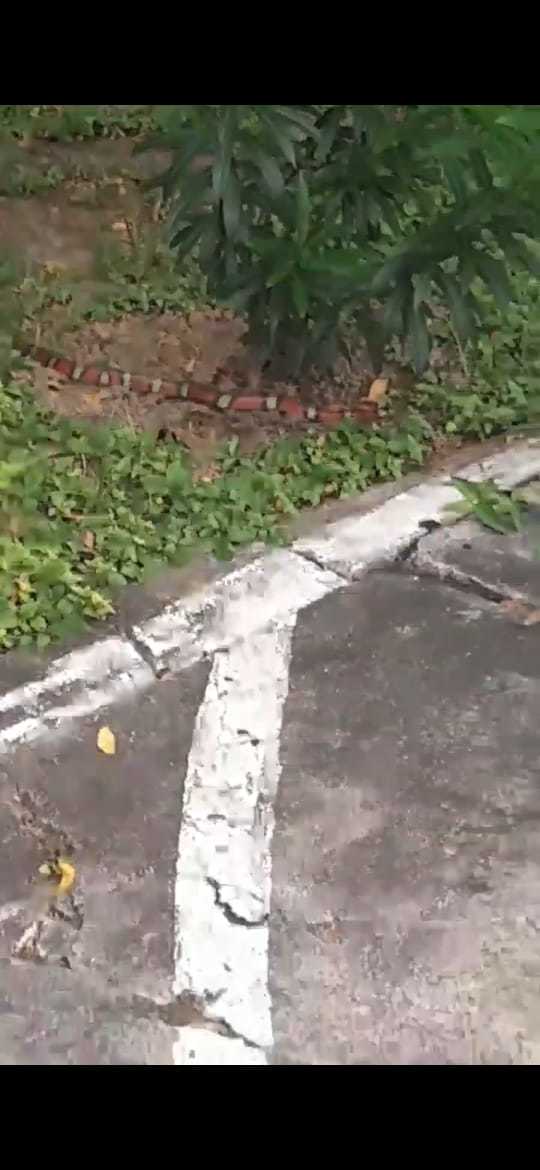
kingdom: Animalia
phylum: Chordata
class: Squamata
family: Colubridae
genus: Lampropeltis
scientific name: Lampropeltis micropholis
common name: Ecuadorian milksnake
